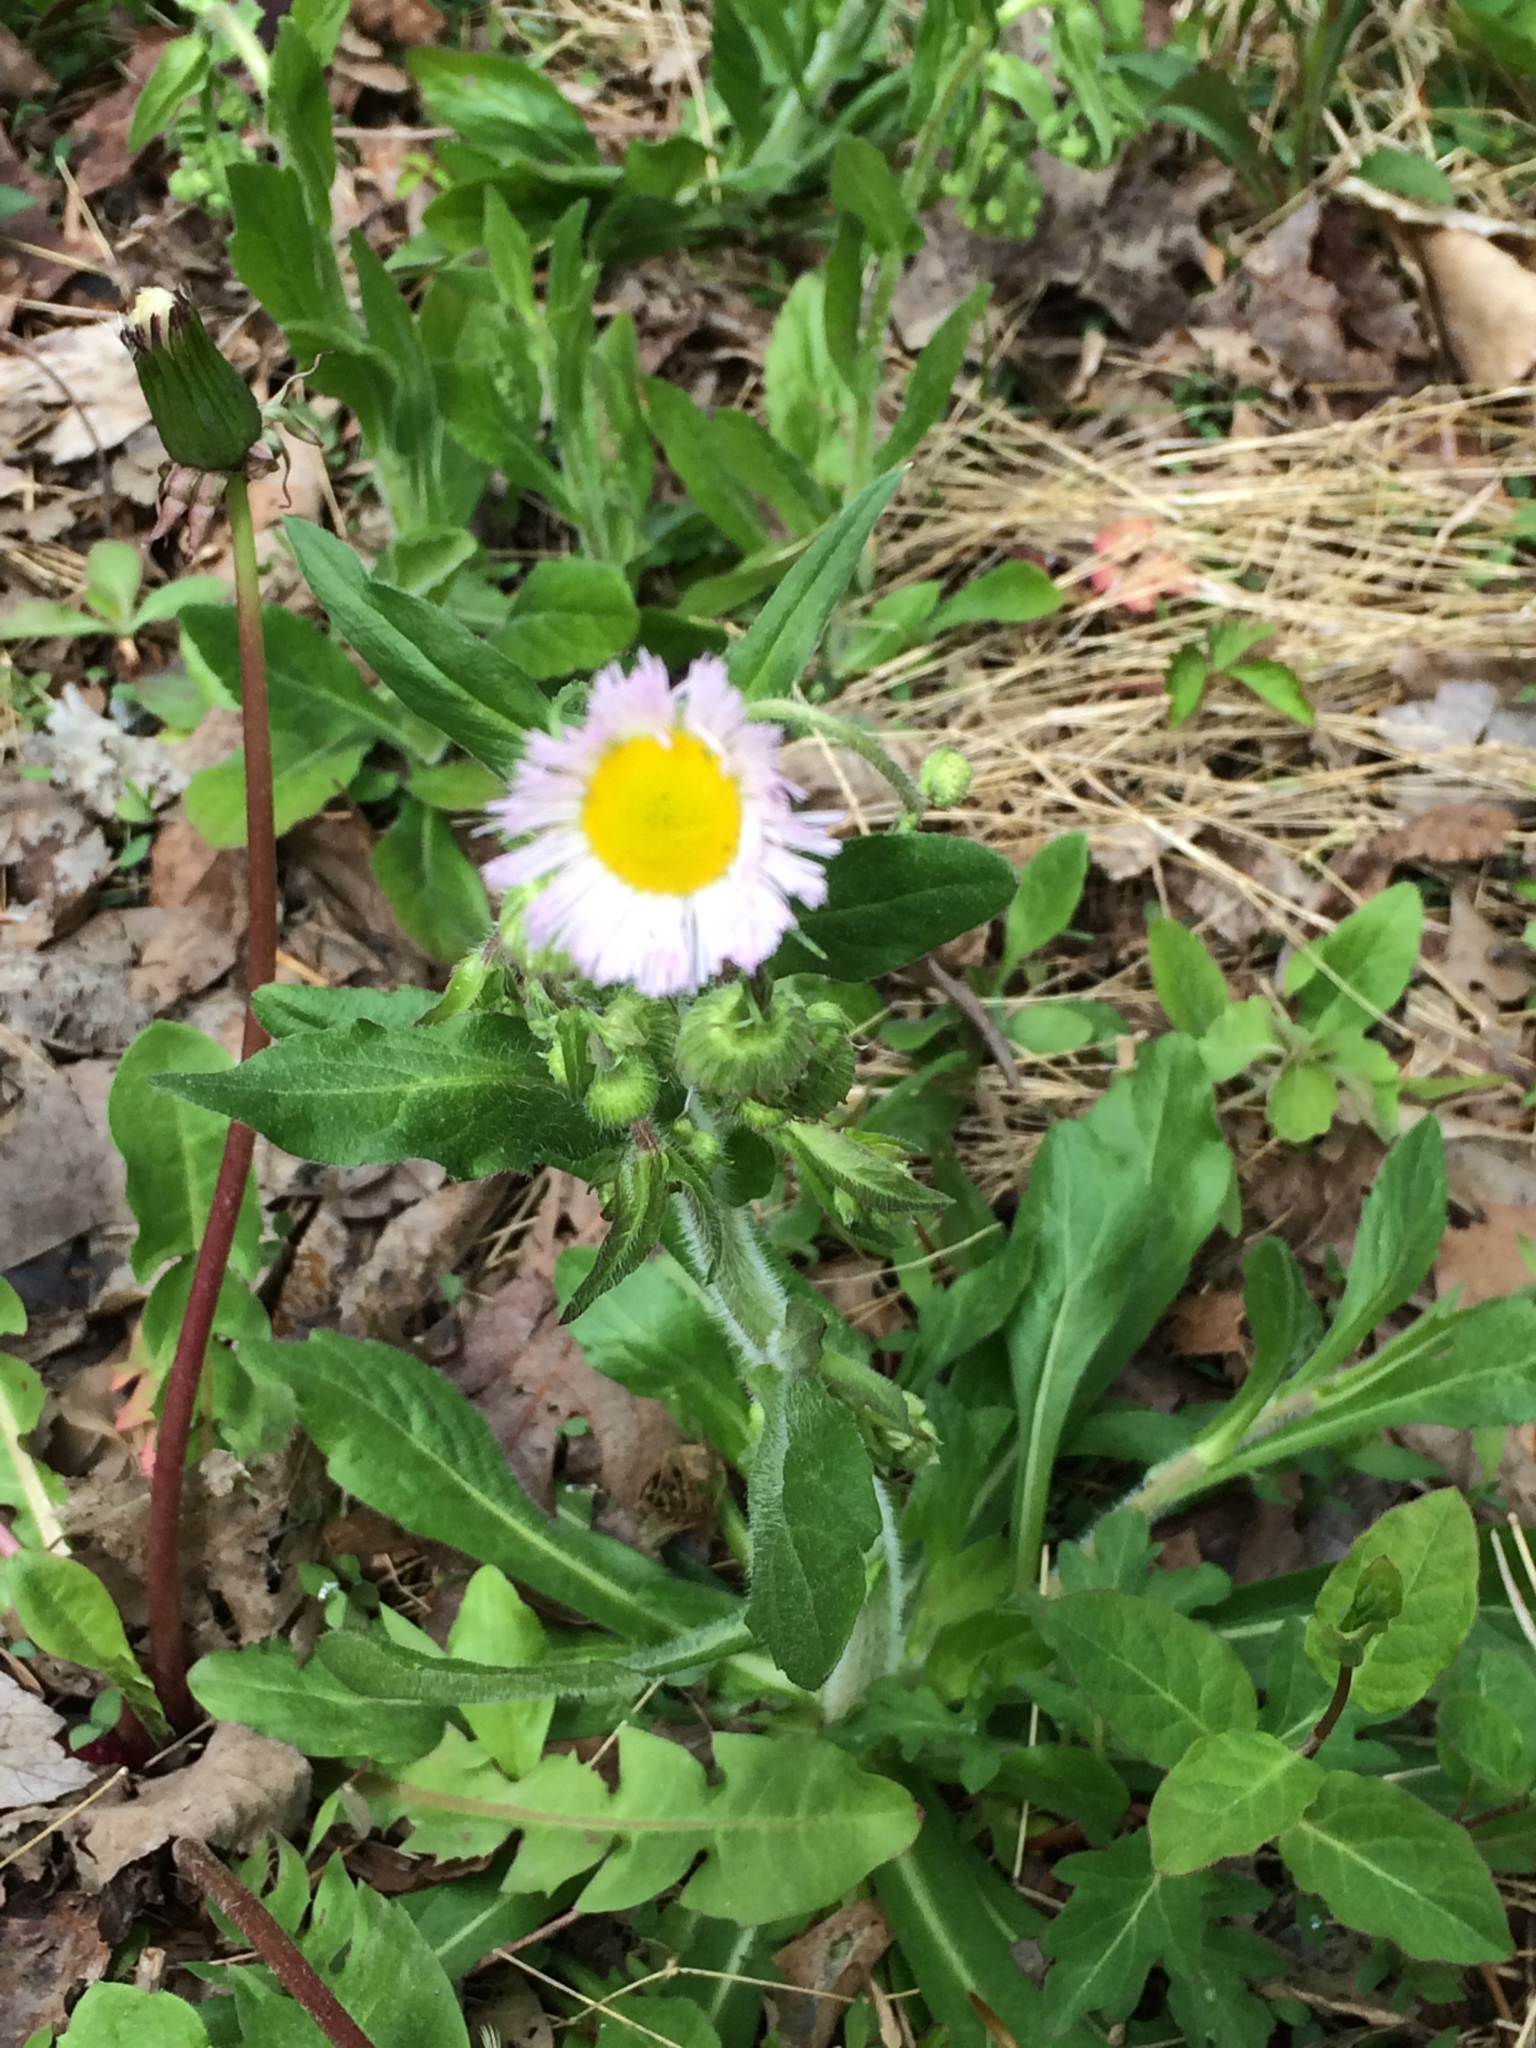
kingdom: Plantae
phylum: Tracheophyta
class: Magnoliopsida
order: Asterales
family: Asteraceae
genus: Erigeron
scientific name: Erigeron philadelphicus
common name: Robin's-plantain
